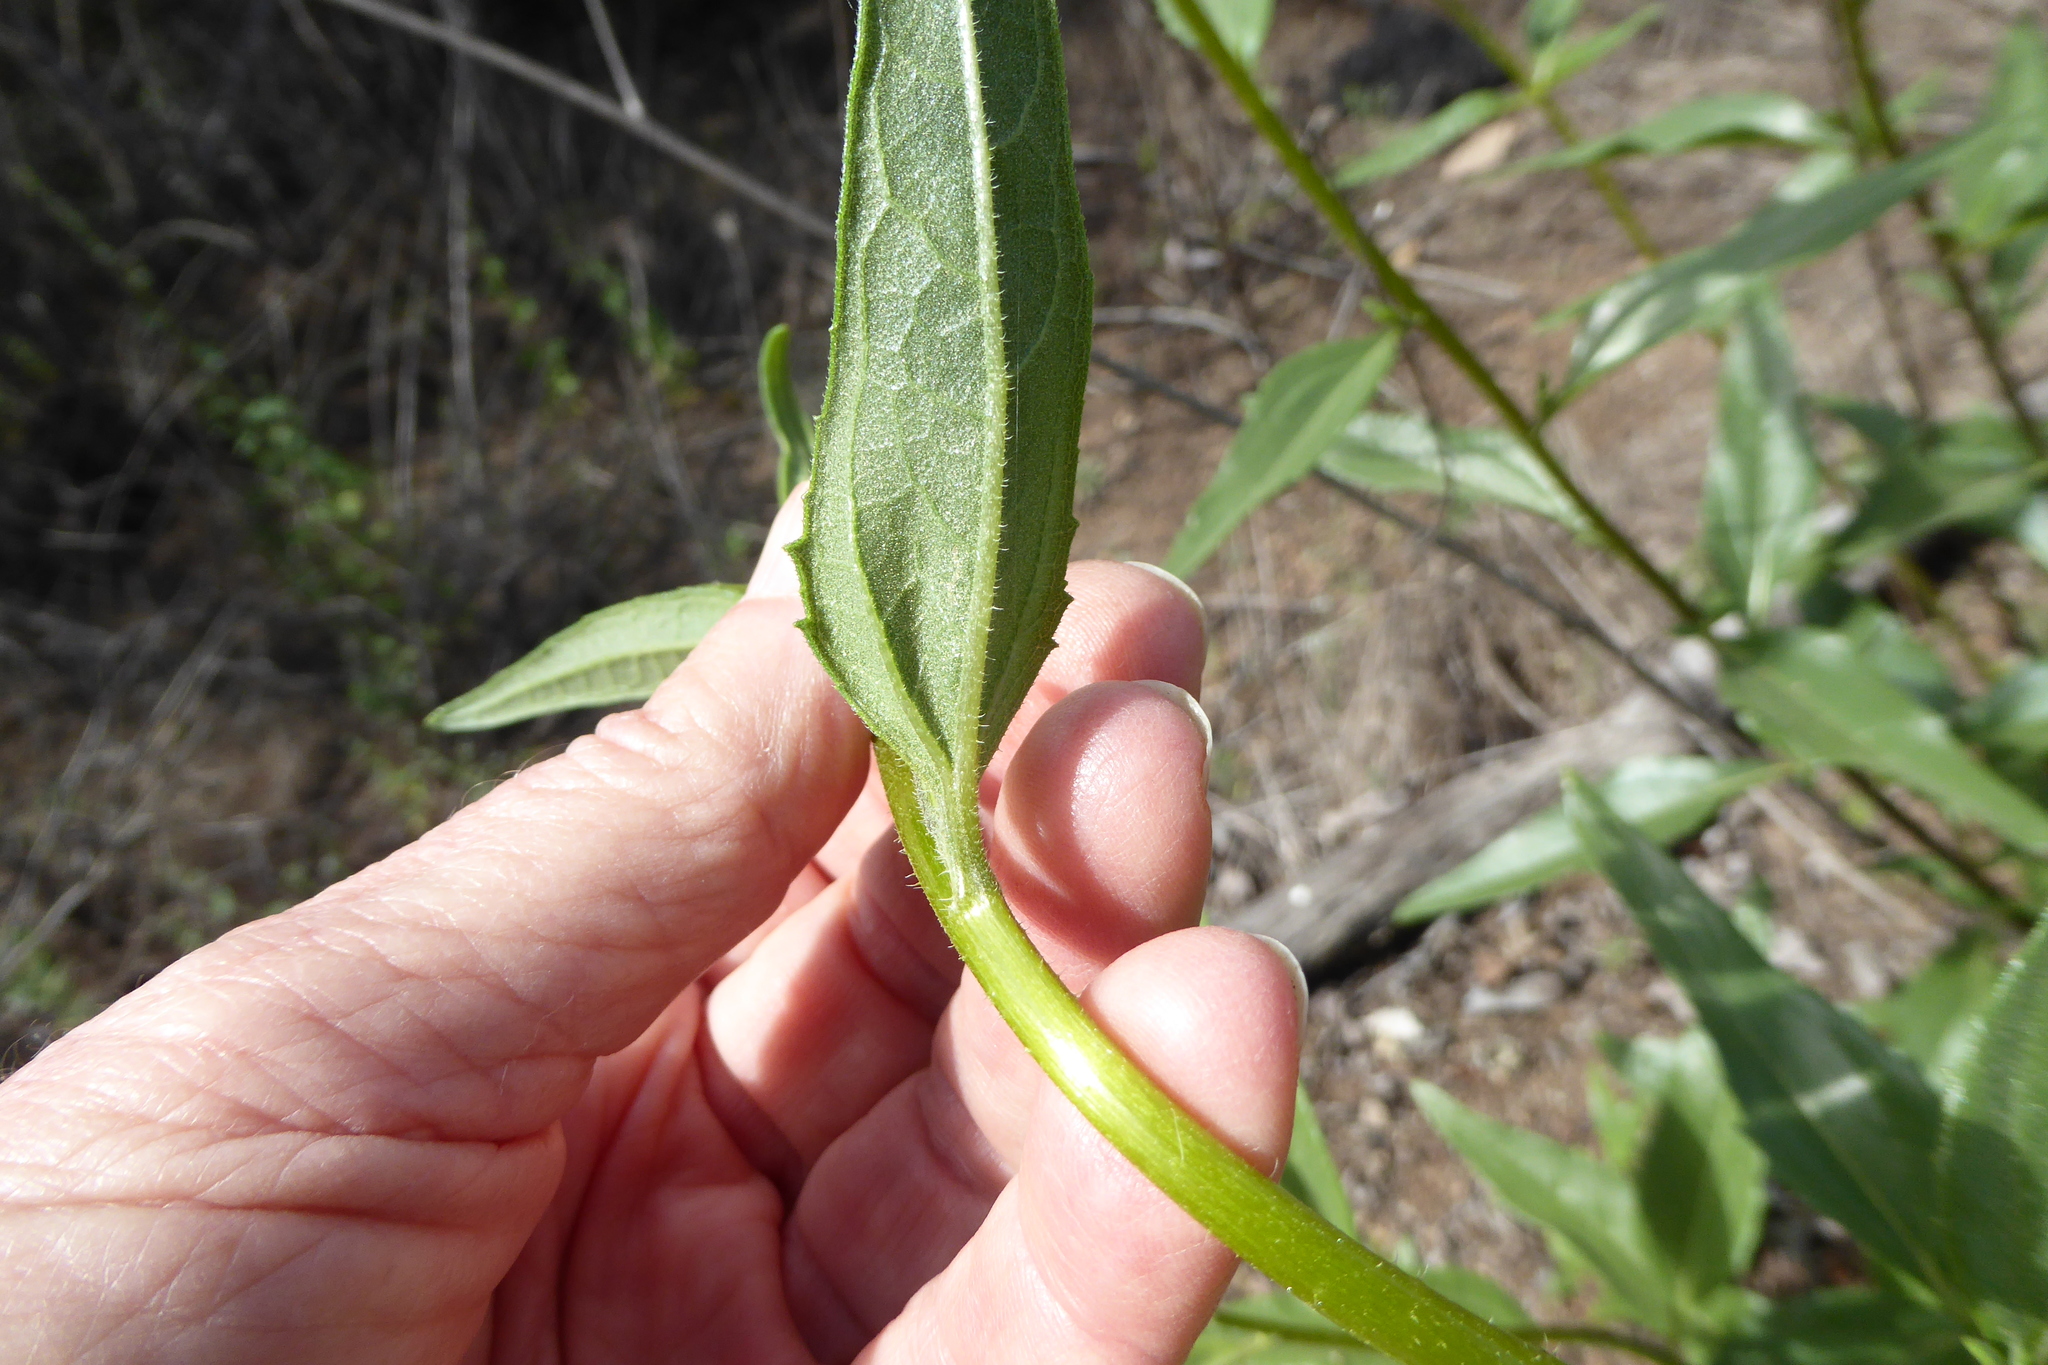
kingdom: Plantae
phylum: Tracheophyta
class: Magnoliopsida
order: Asterales
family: Asteraceae
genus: Helianthus
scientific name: Helianthus gracilentus
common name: Slender sunflower
